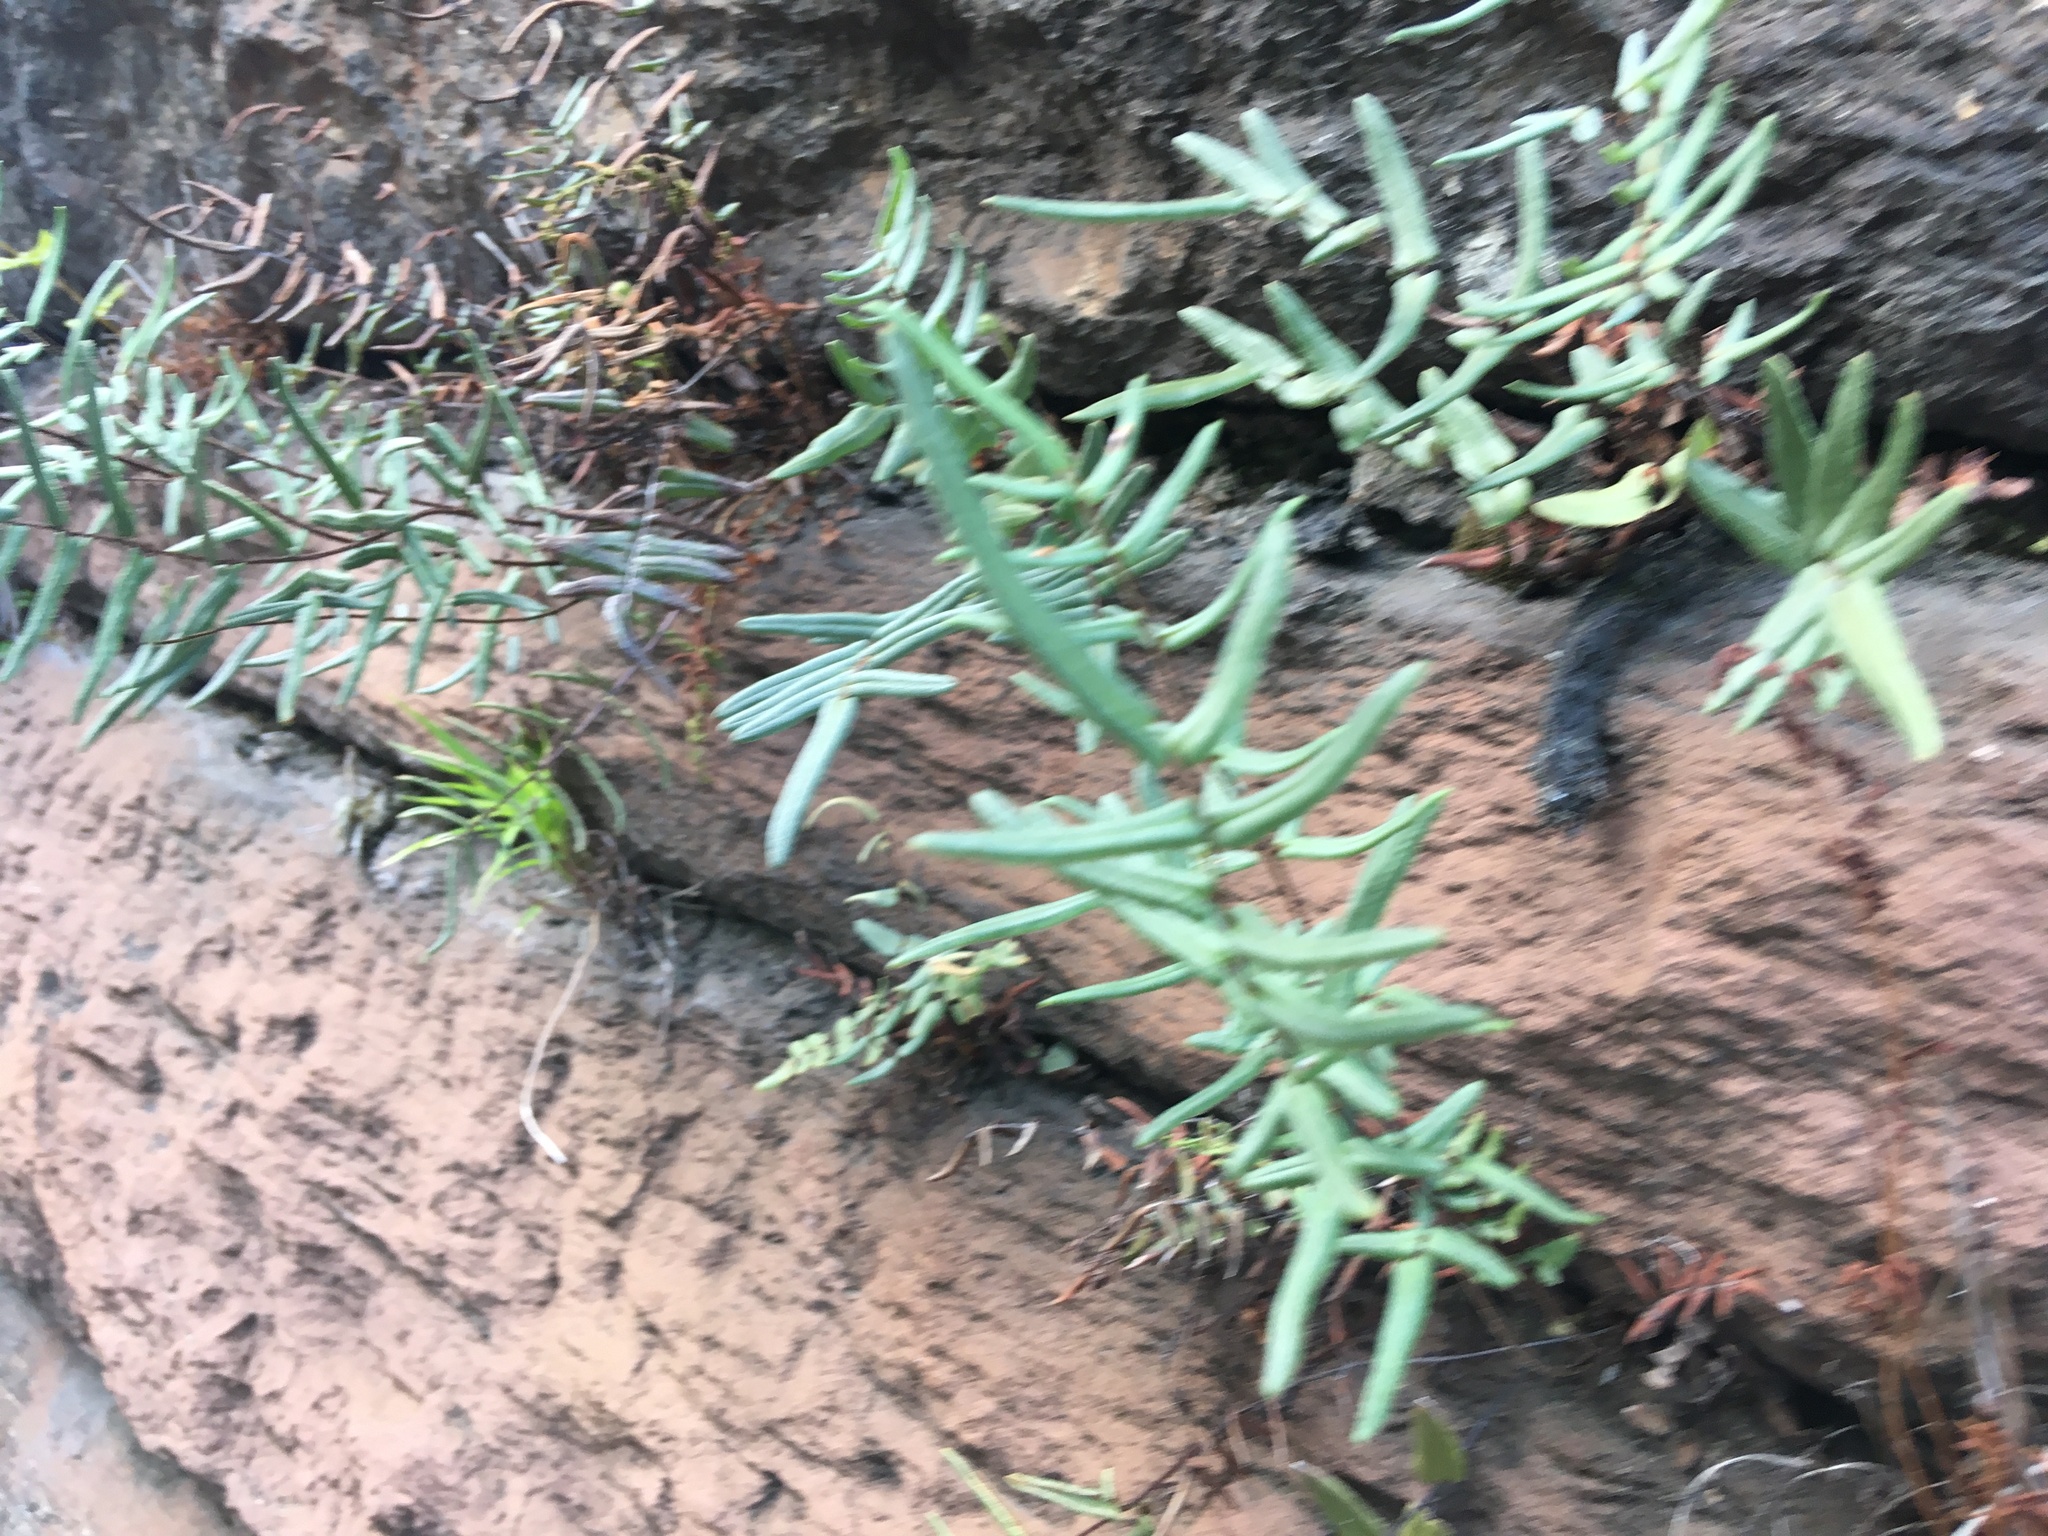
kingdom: Plantae
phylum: Tracheophyta
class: Polypodiopsida
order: Polypodiales
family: Pteridaceae
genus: Pellaea
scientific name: Pellaea atropurpurea
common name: Hairy cliffbrake
